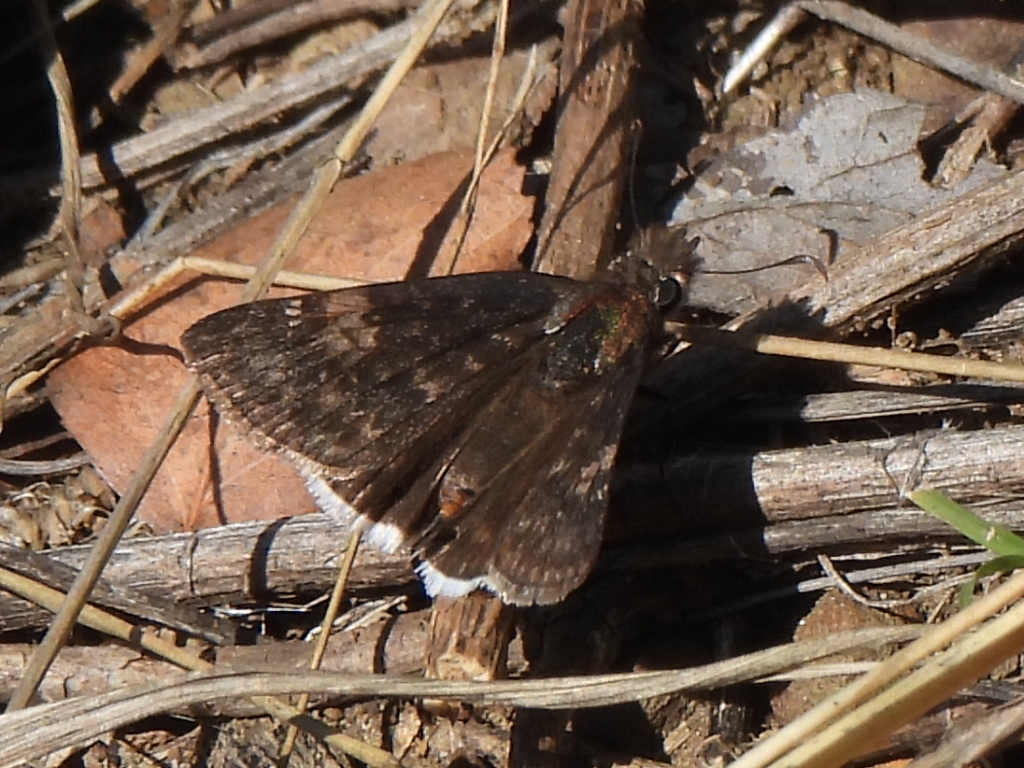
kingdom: Animalia
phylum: Arthropoda
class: Insecta
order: Lepidoptera
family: Hesperiidae
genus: Erynnis
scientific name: Erynnis funeralis
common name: Funereal duskywing
